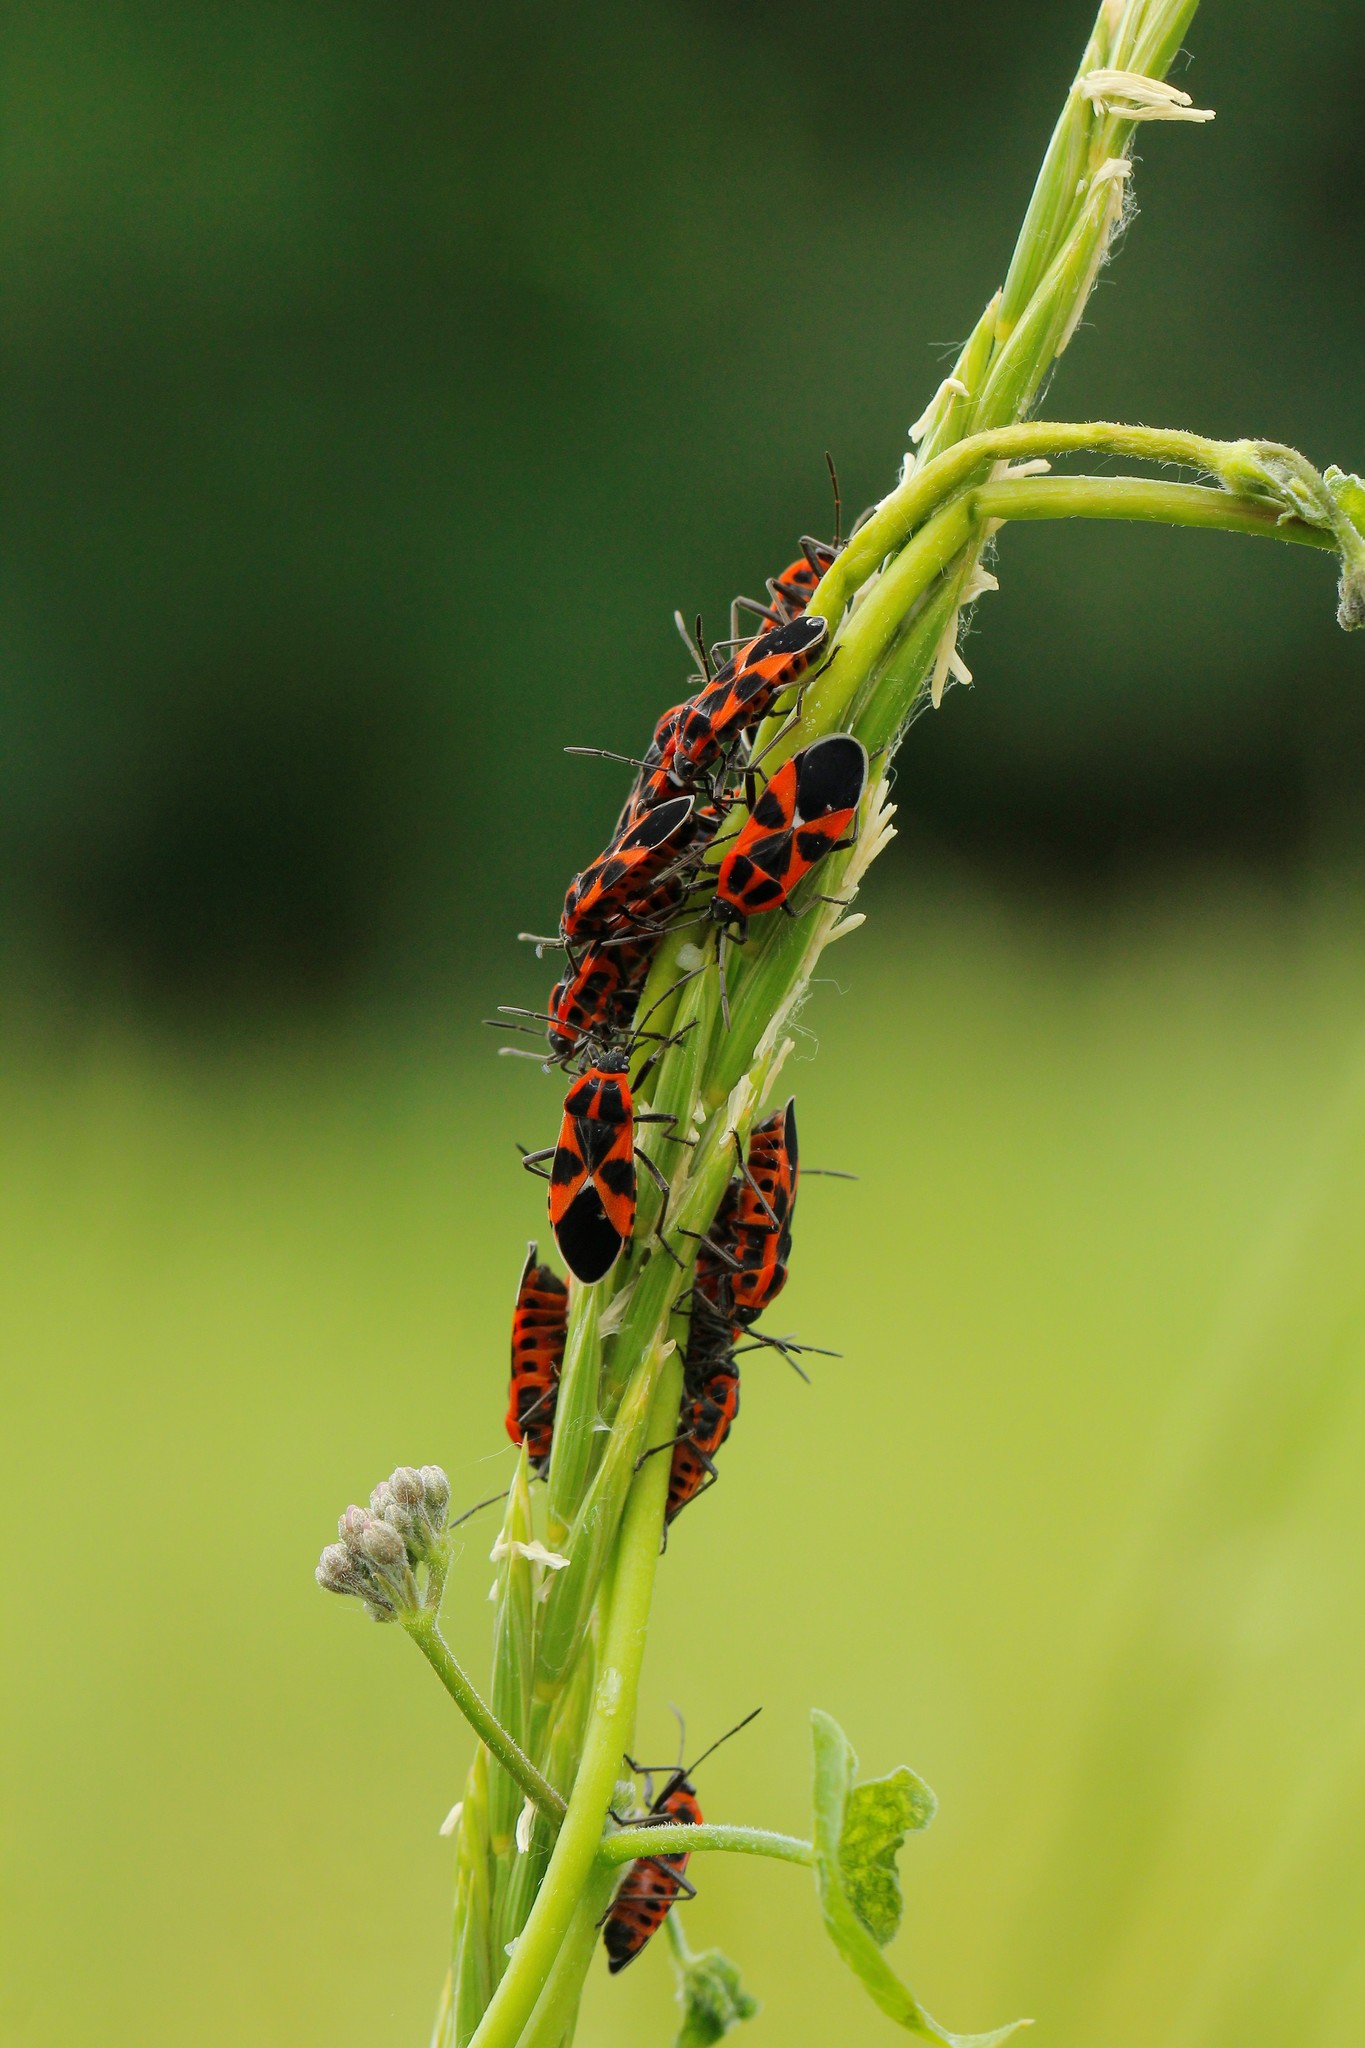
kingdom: Animalia
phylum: Arthropoda
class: Insecta
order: Hemiptera
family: Lygaeidae
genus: Tropidothorax
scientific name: Tropidothorax leucopterus
